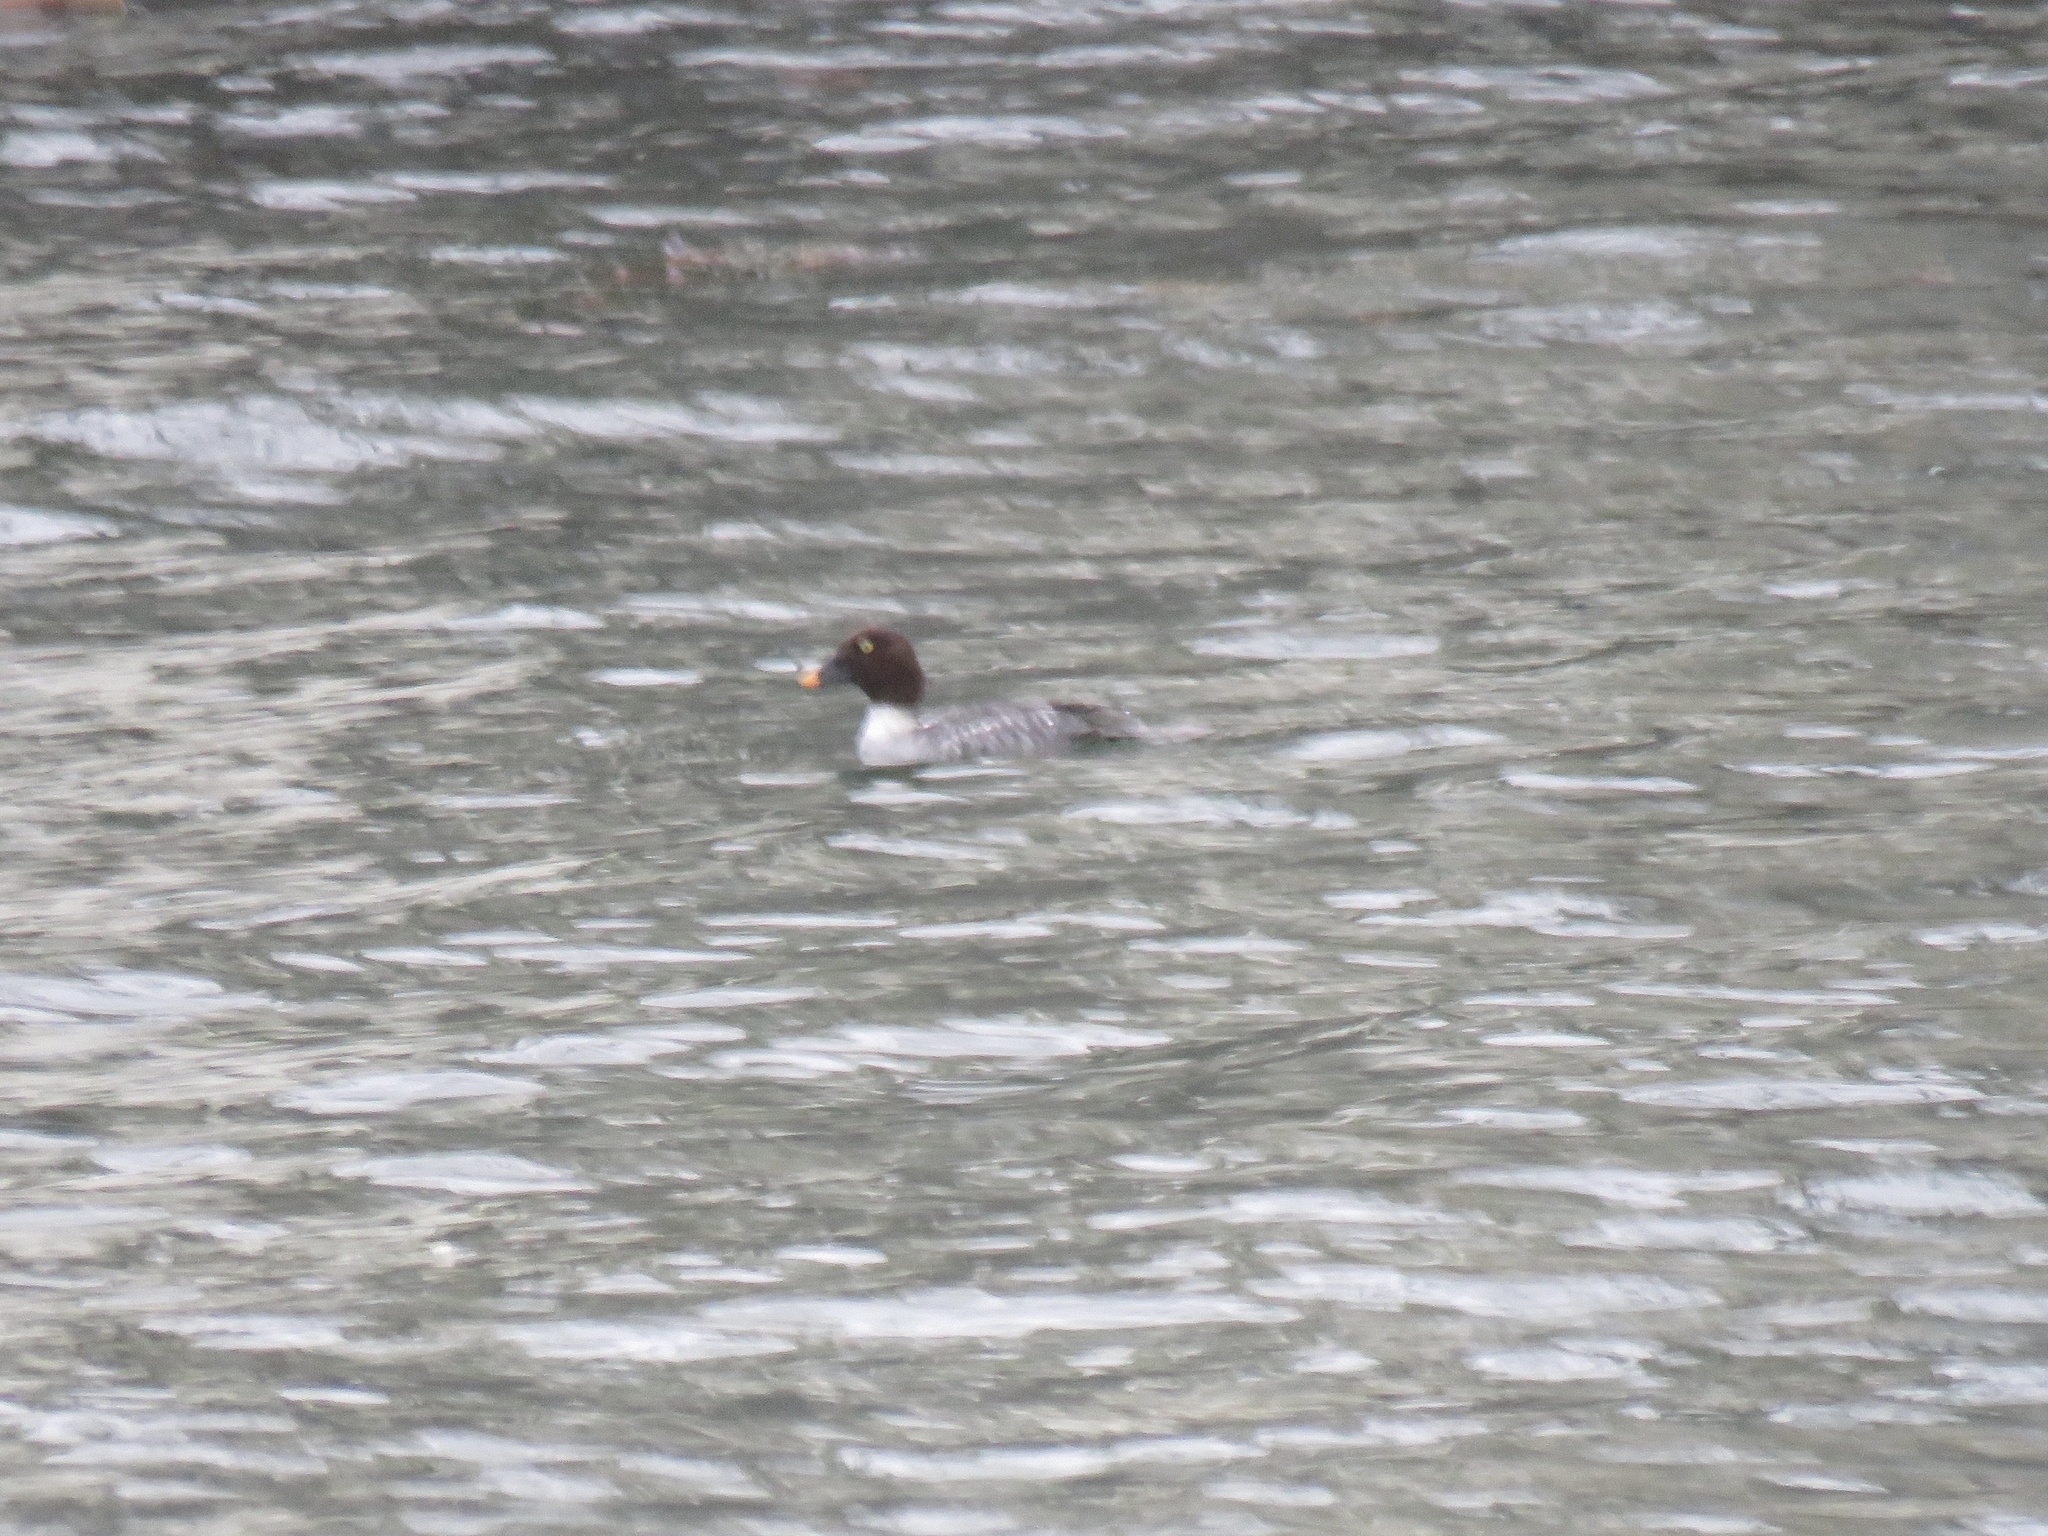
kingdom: Animalia
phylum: Chordata
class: Aves
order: Anseriformes
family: Anatidae
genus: Bucephala
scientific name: Bucephala clangula
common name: Common goldeneye
